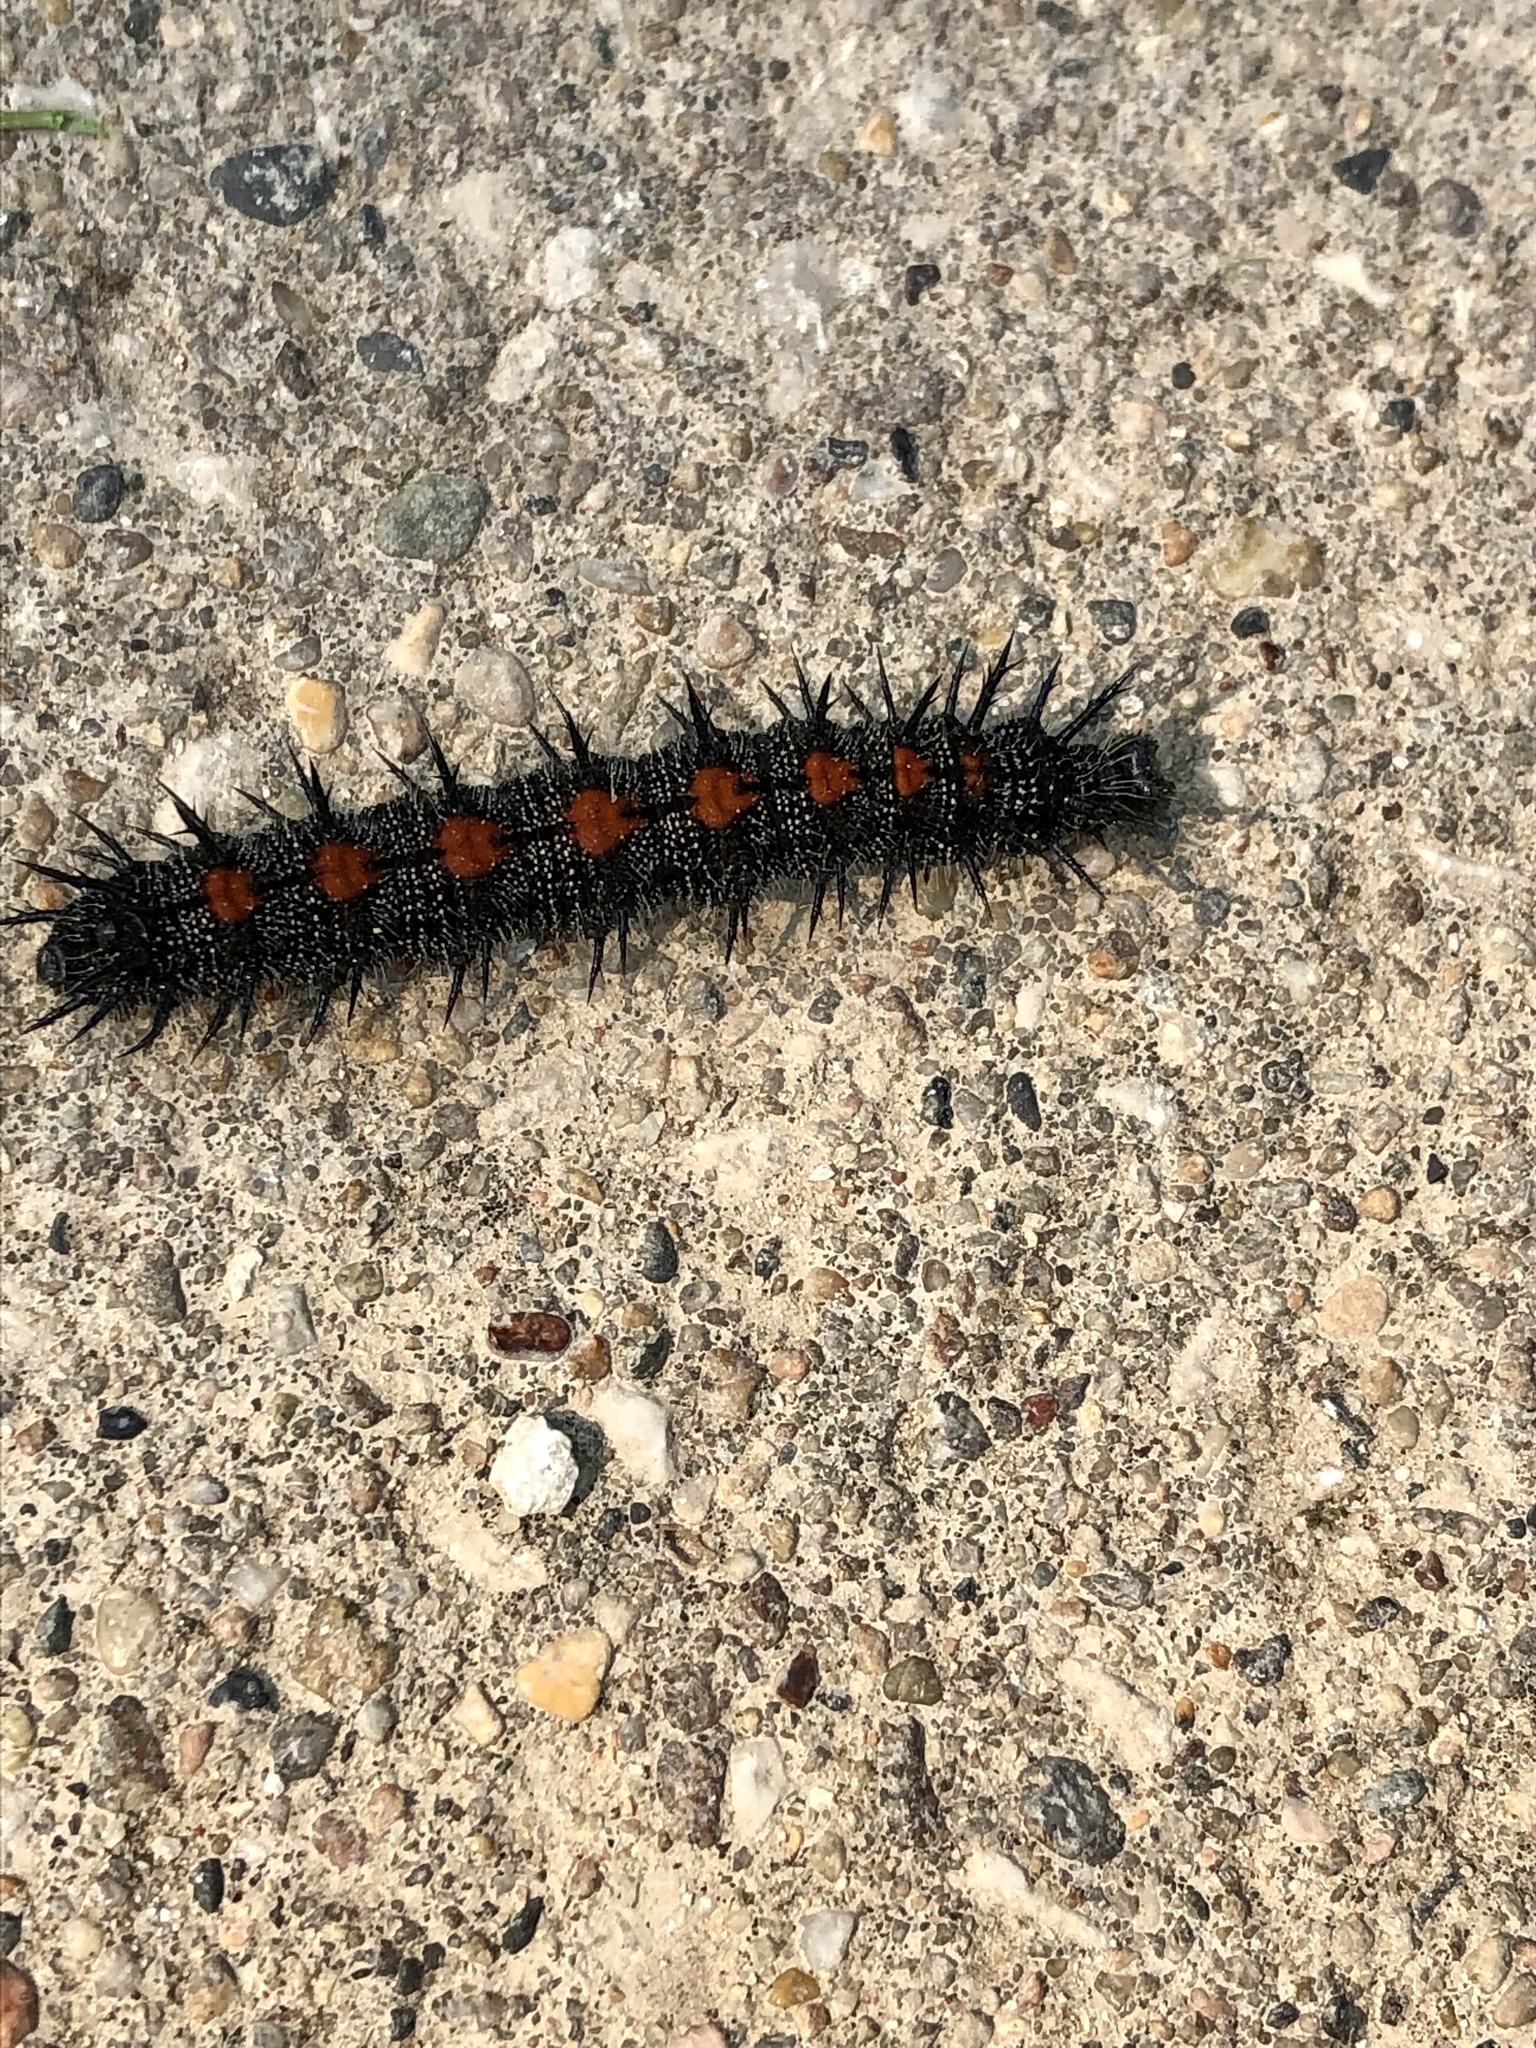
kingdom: Animalia
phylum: Arthropoda
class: Insecta
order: Lepidoptera
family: Nymphalidae
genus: Nymphalis
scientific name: Nymphalis antiopa
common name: Camberwell beauty
